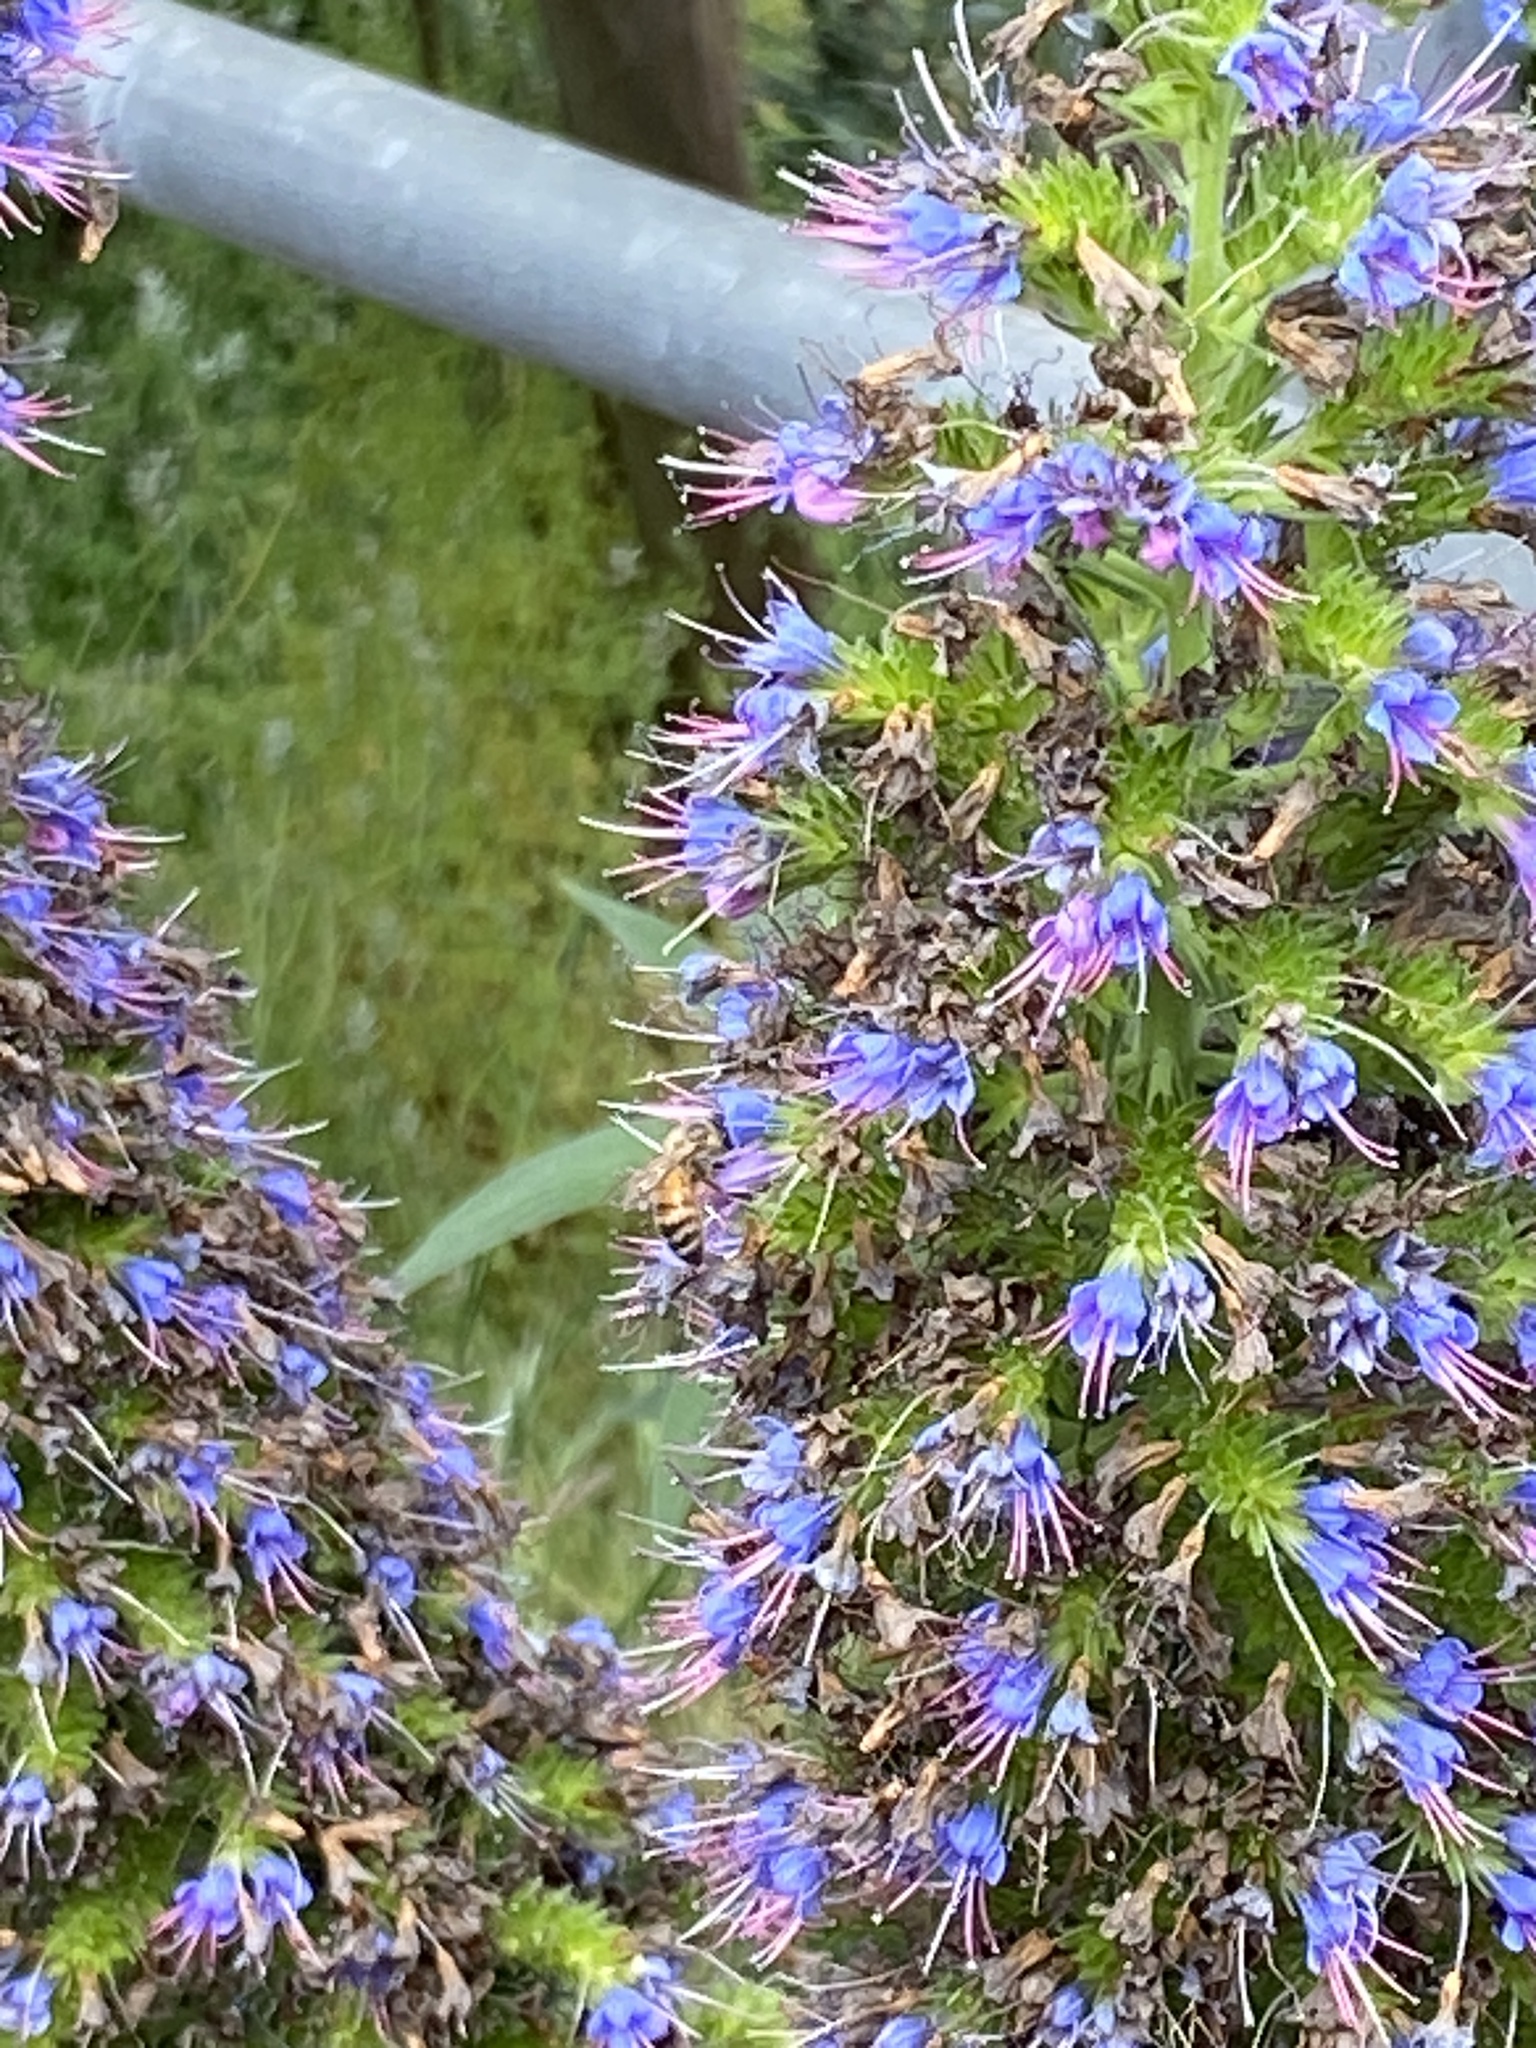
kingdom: Animalia
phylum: Arthropoda
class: Insecta
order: Hymenoptera
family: Apidae
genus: Apis
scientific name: Apis mellifera
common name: Honey bee
